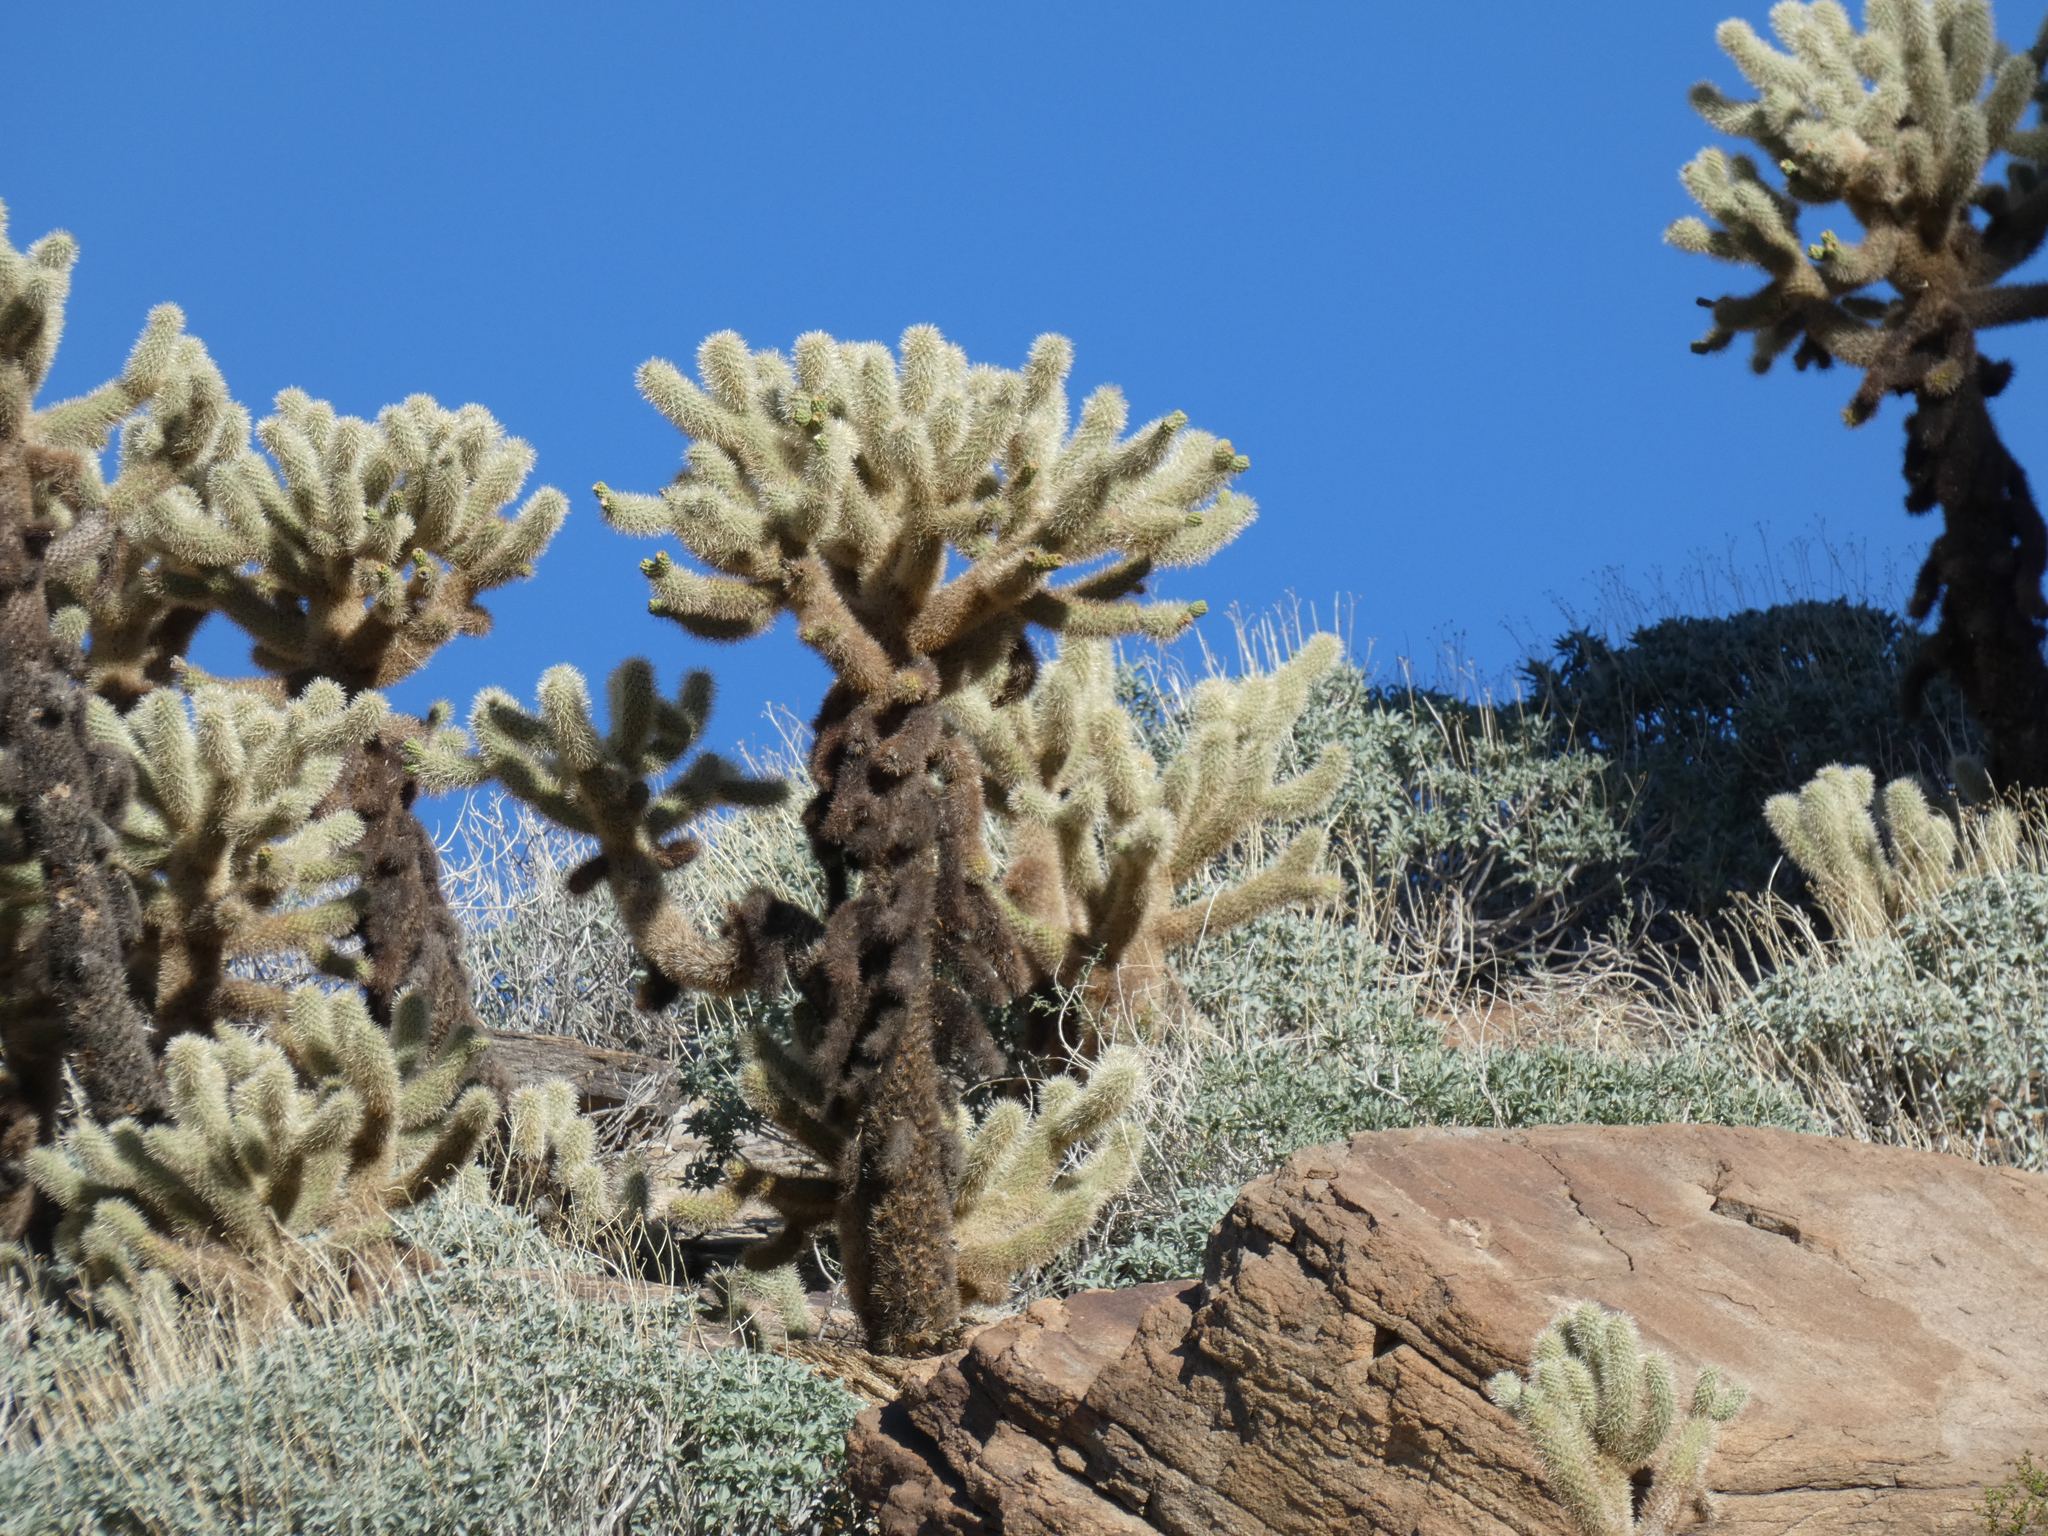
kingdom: Plantae
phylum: Tracheophyta
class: Magnoliopsida
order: Caryophyllales
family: Cactaceae
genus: Cylindropuntia
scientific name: Cylindropuntia fosbergii
